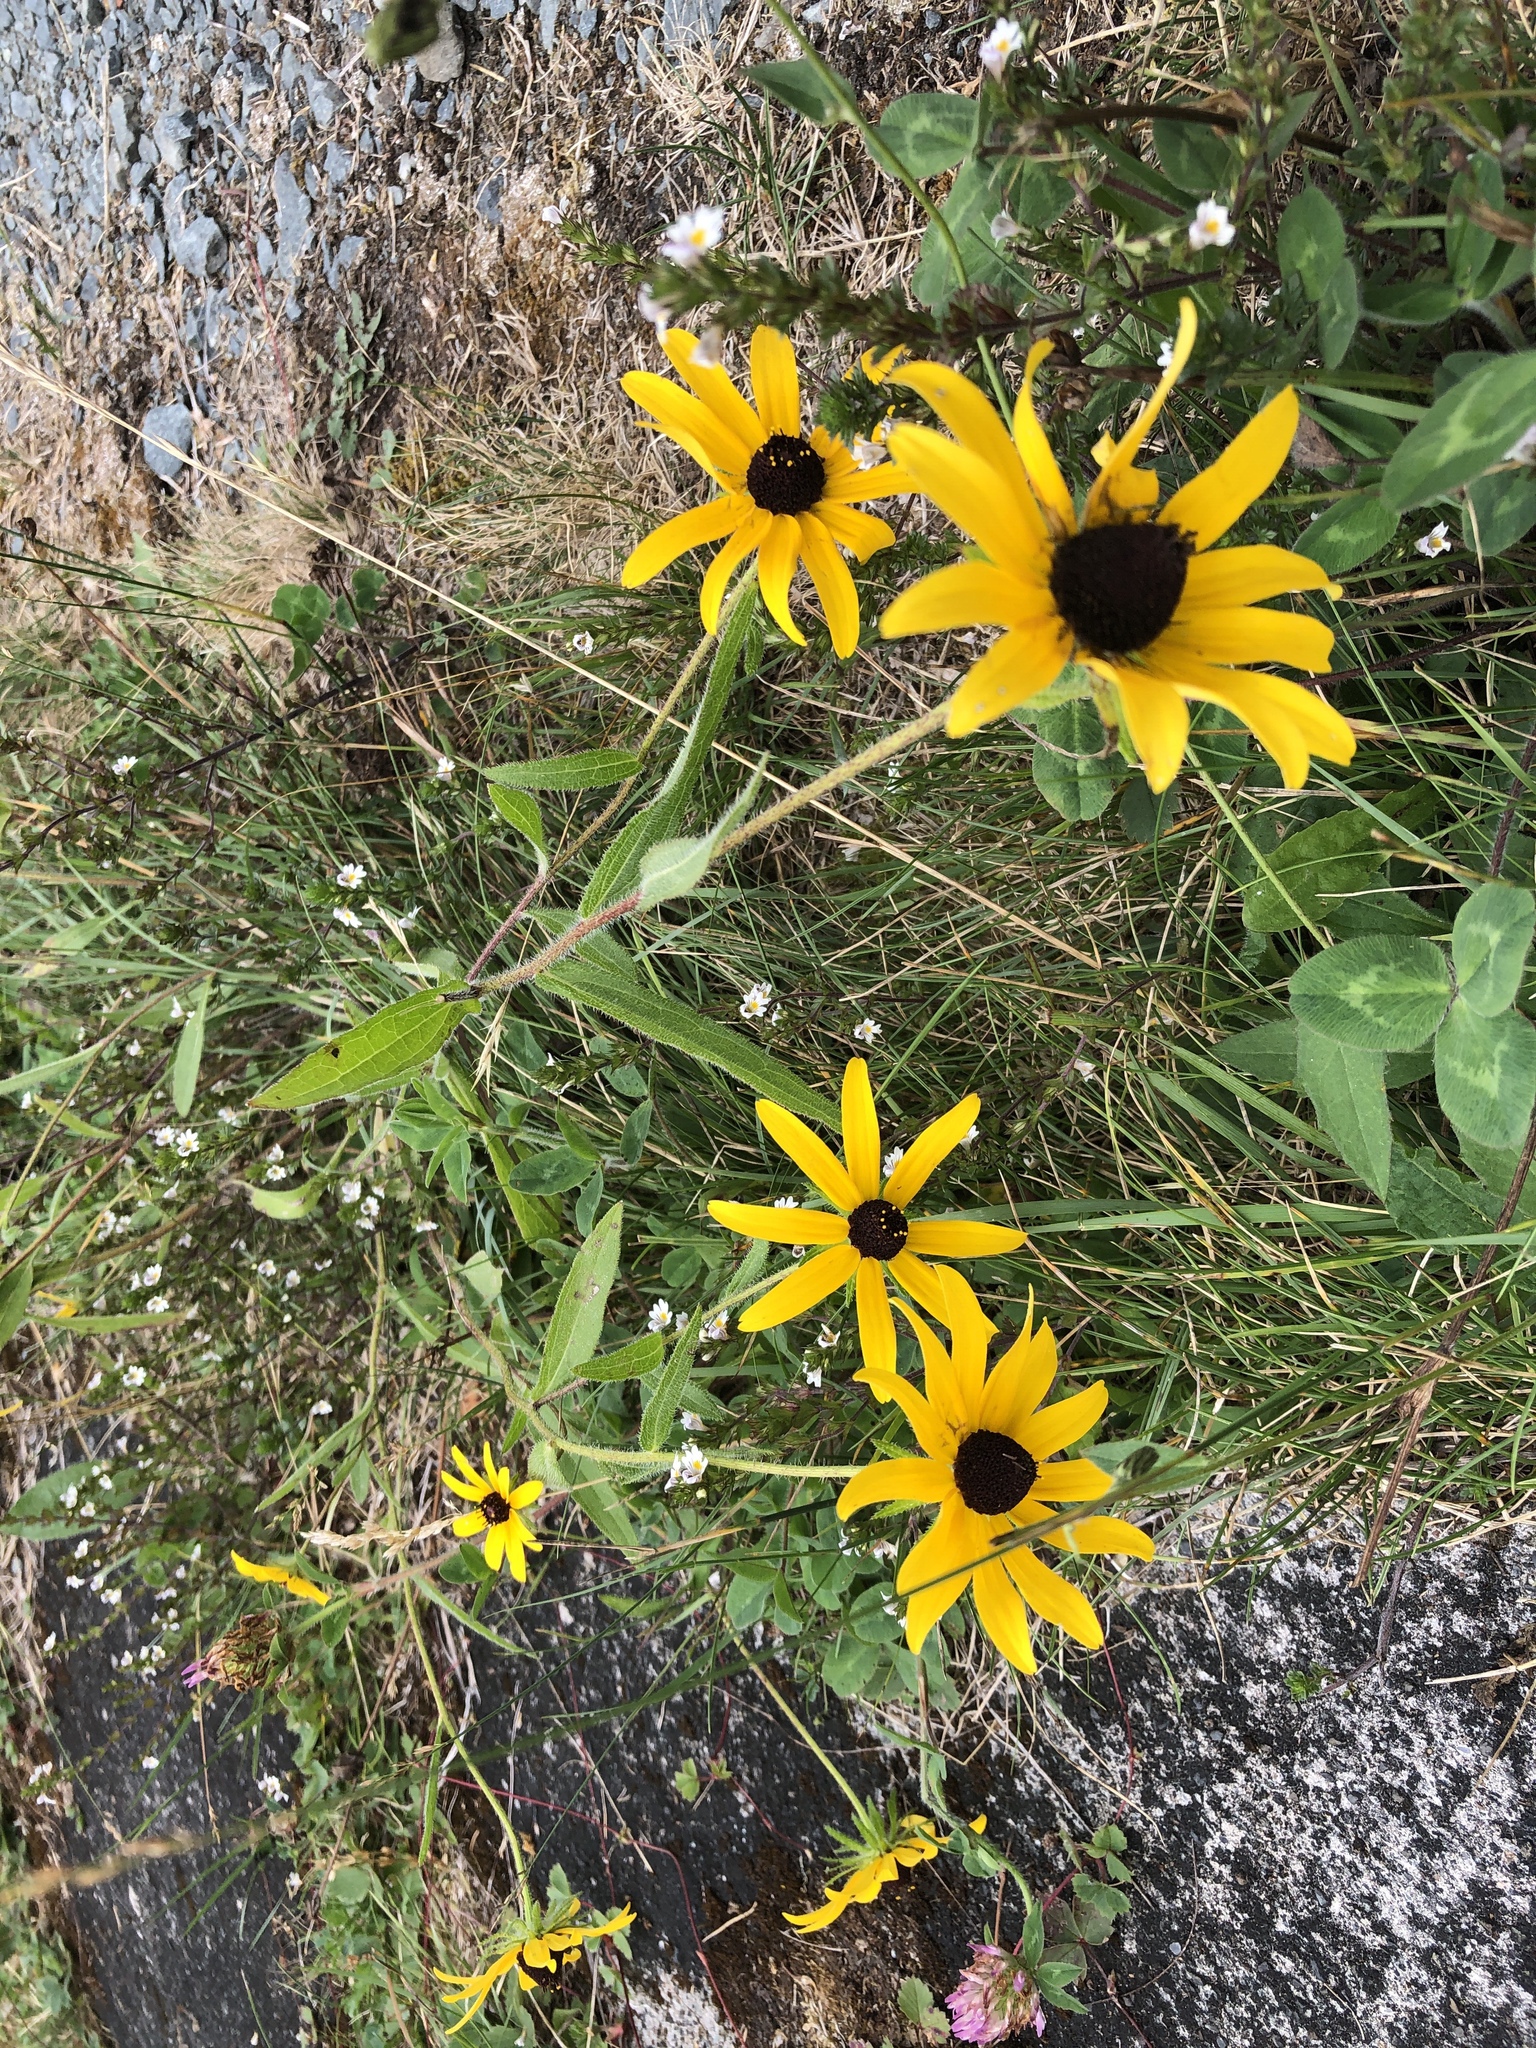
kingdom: Plantae
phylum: Tracheophyta
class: Magnoliopsida
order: Asterales
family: Asteraceae
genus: Rudbeckia
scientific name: Rudbeckia hirta
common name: Black-eyed-susan
